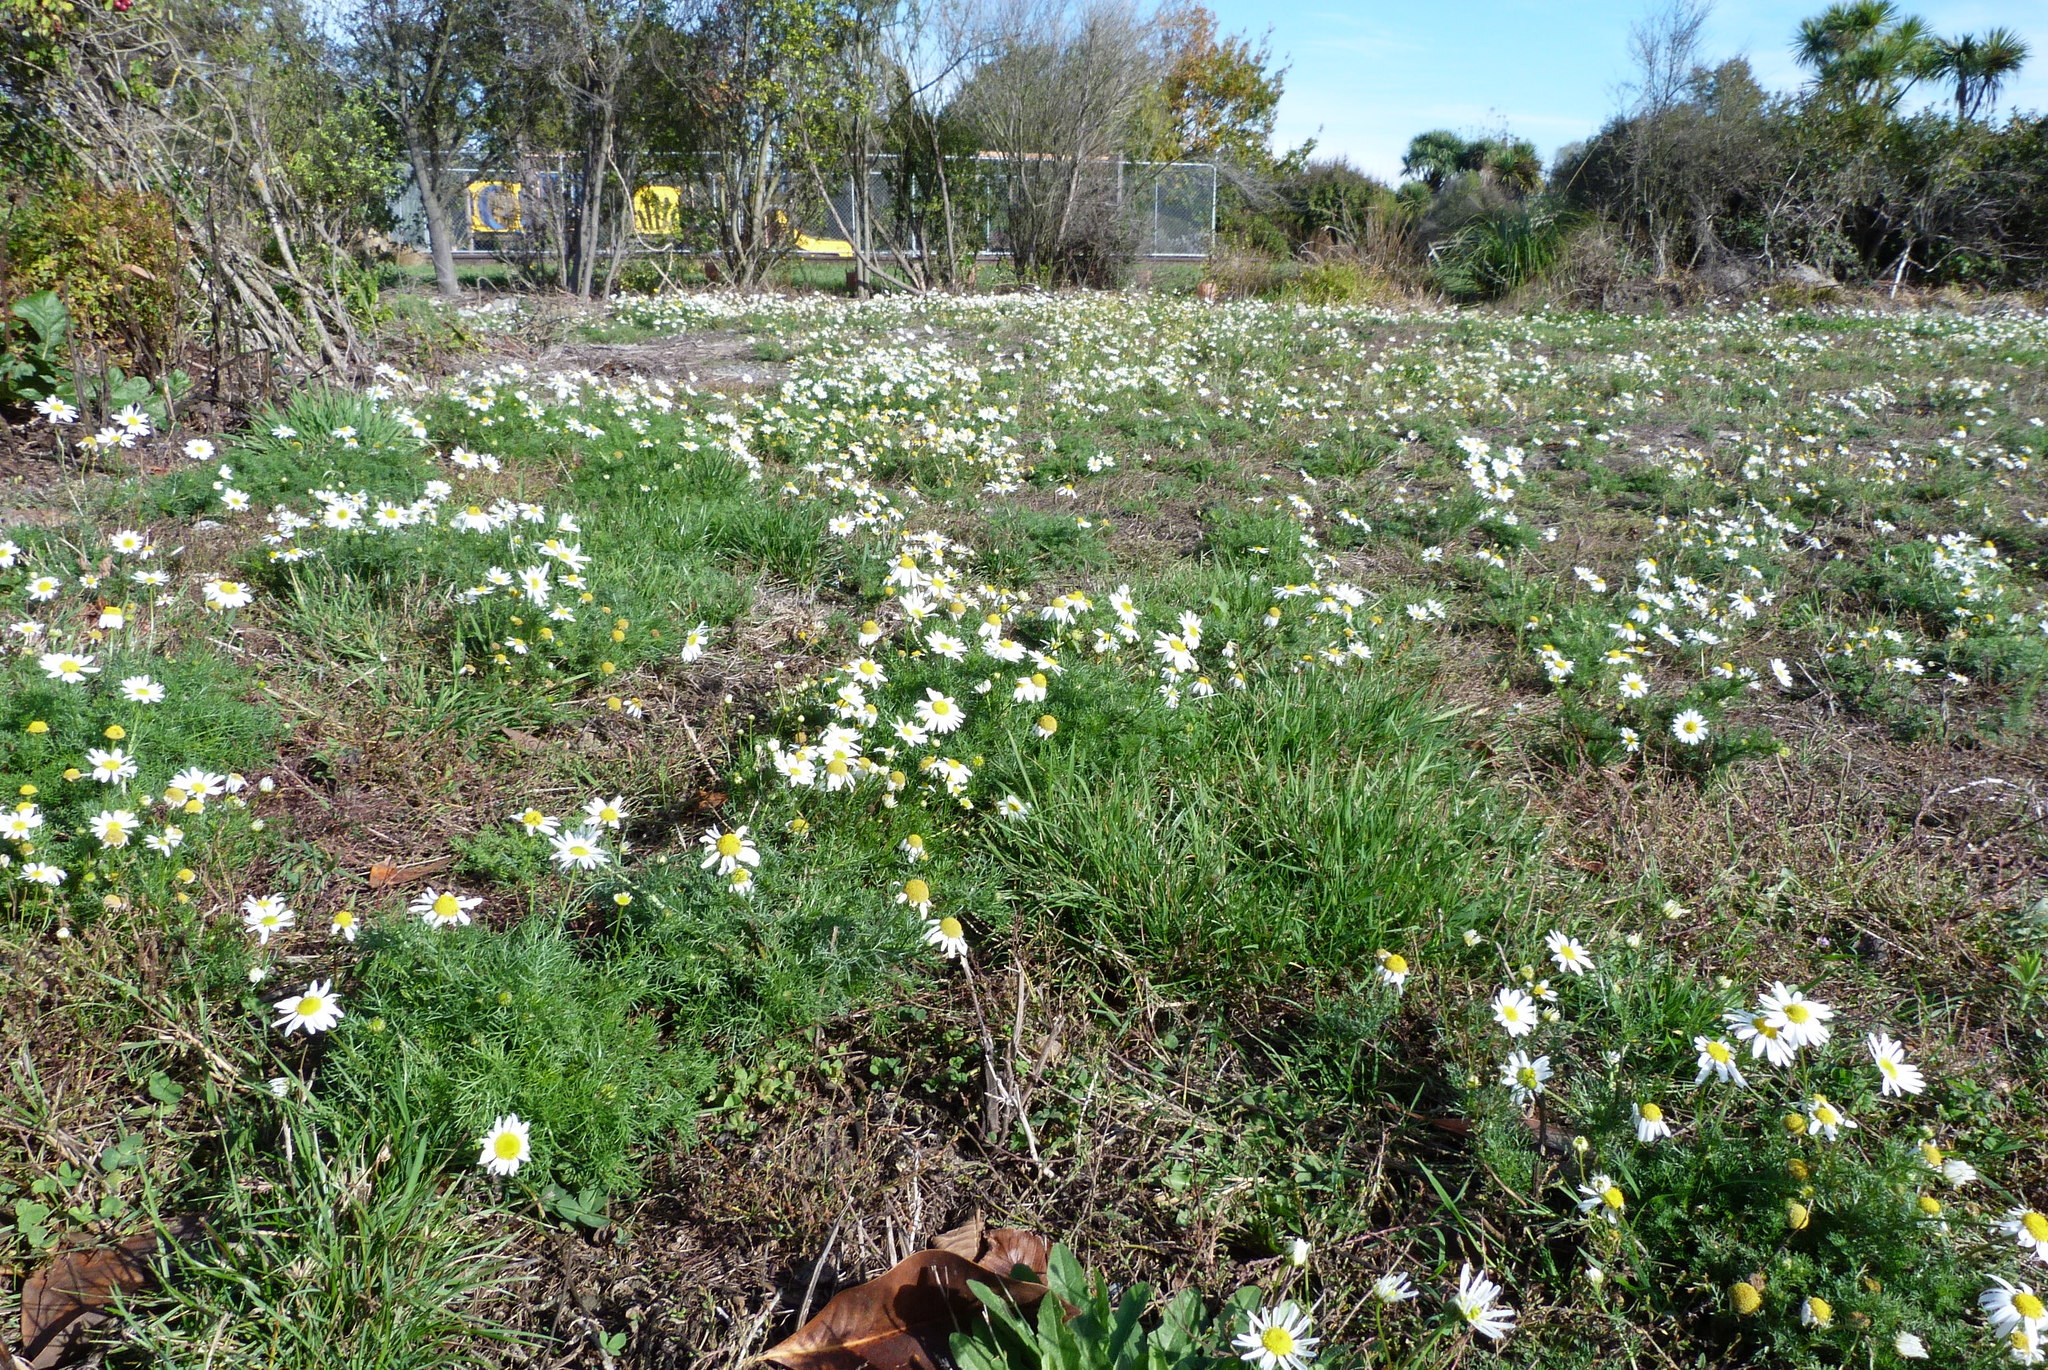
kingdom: Plantae
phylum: Tracheophyta
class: Magnoliopsida
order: Asterales
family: Asteraceae
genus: Tripleurospermum
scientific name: Tripleurospermum inodorum
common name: Scentless mayweed
